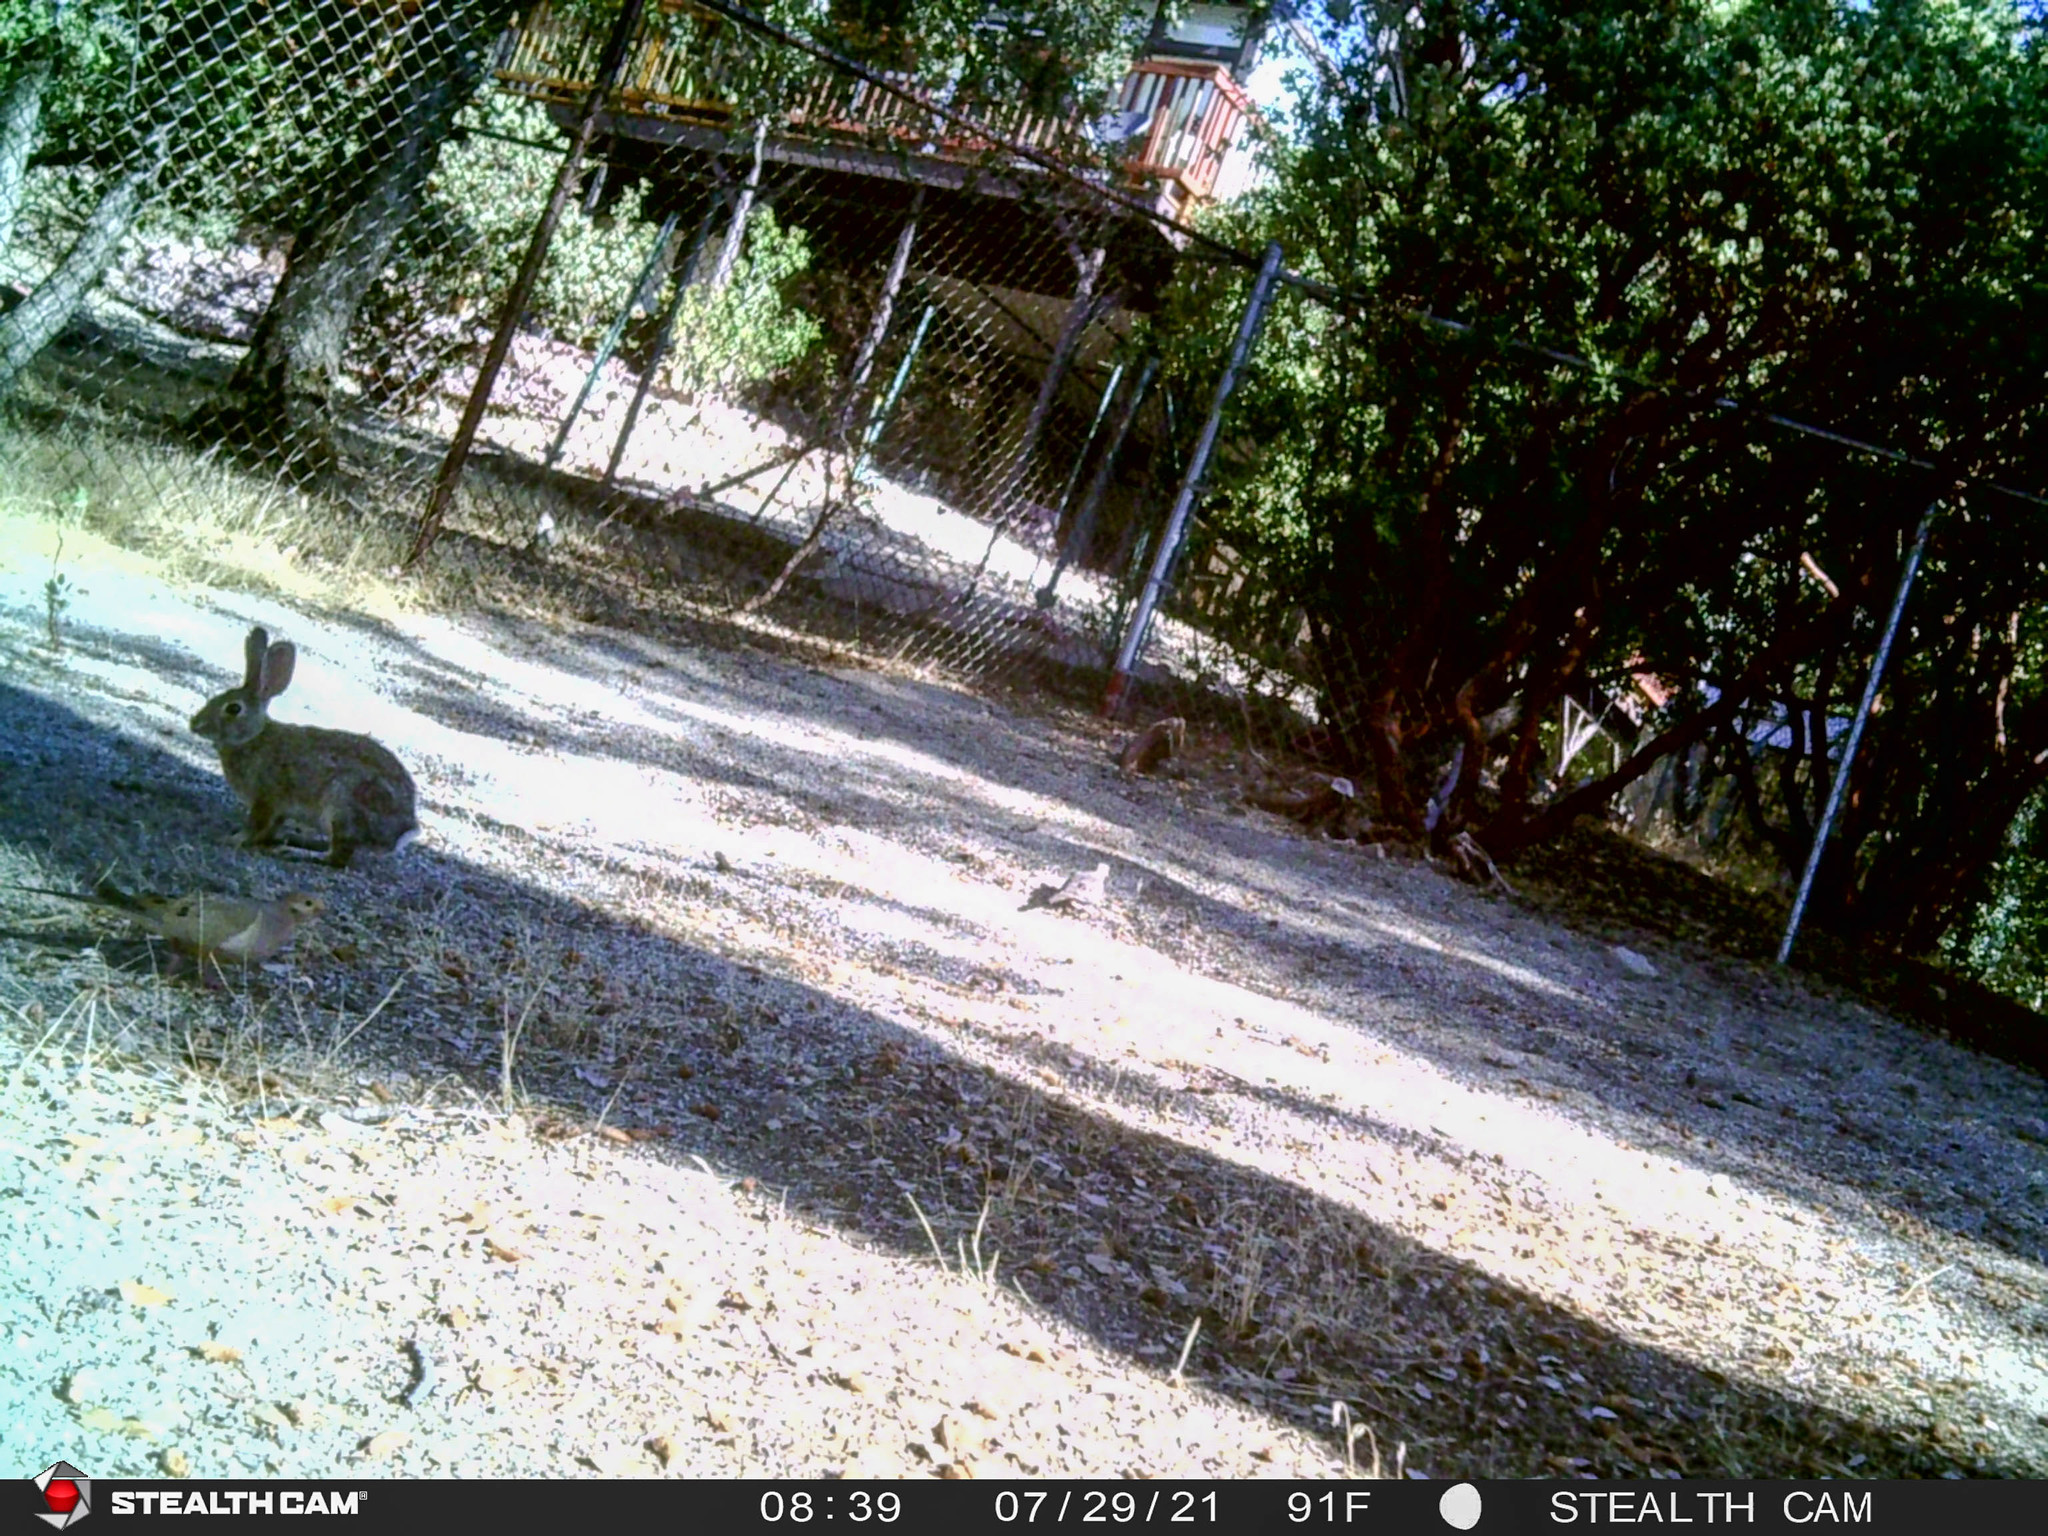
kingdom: Animalia
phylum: Chordata
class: Aves
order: Columbiformes
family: Columbidae
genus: Zenaida
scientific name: Zenaida macroura
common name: Mourning dove
